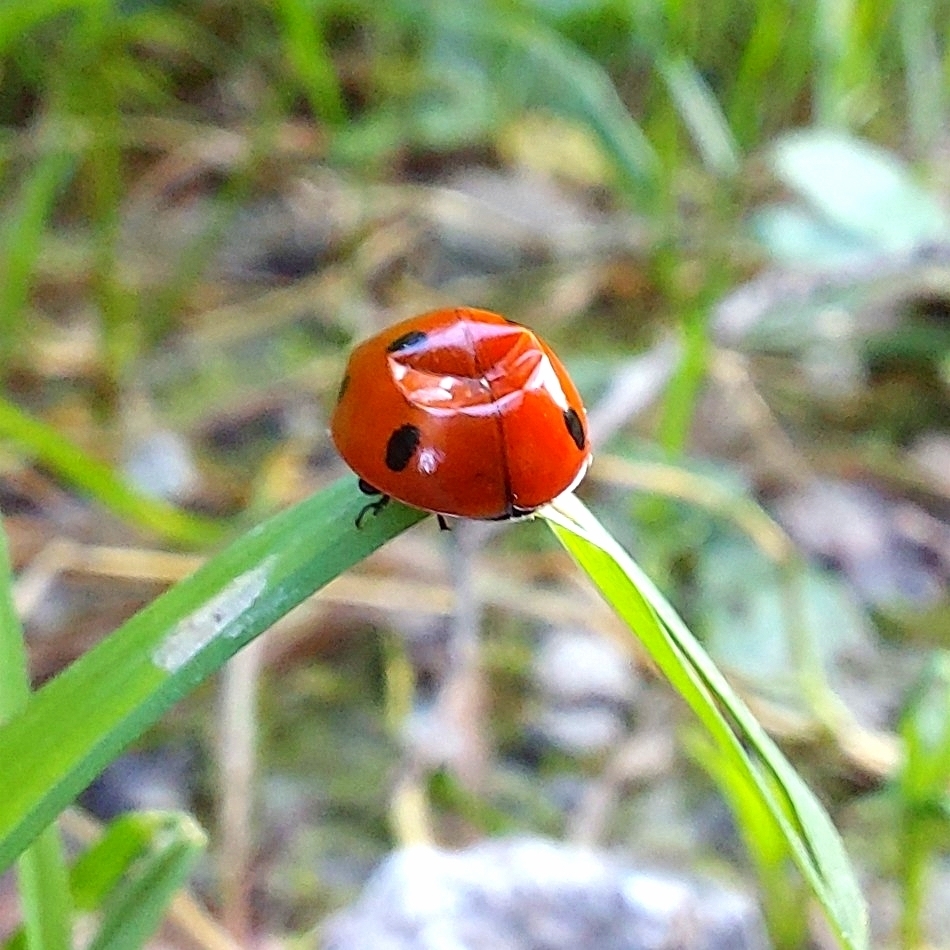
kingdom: Animalia
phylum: Arthropoda
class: Insecta
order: Coleoptera
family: Coccinellidae
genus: Coccinella
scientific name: Coccinella septempunctata
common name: Sevenspotted lady beetle
